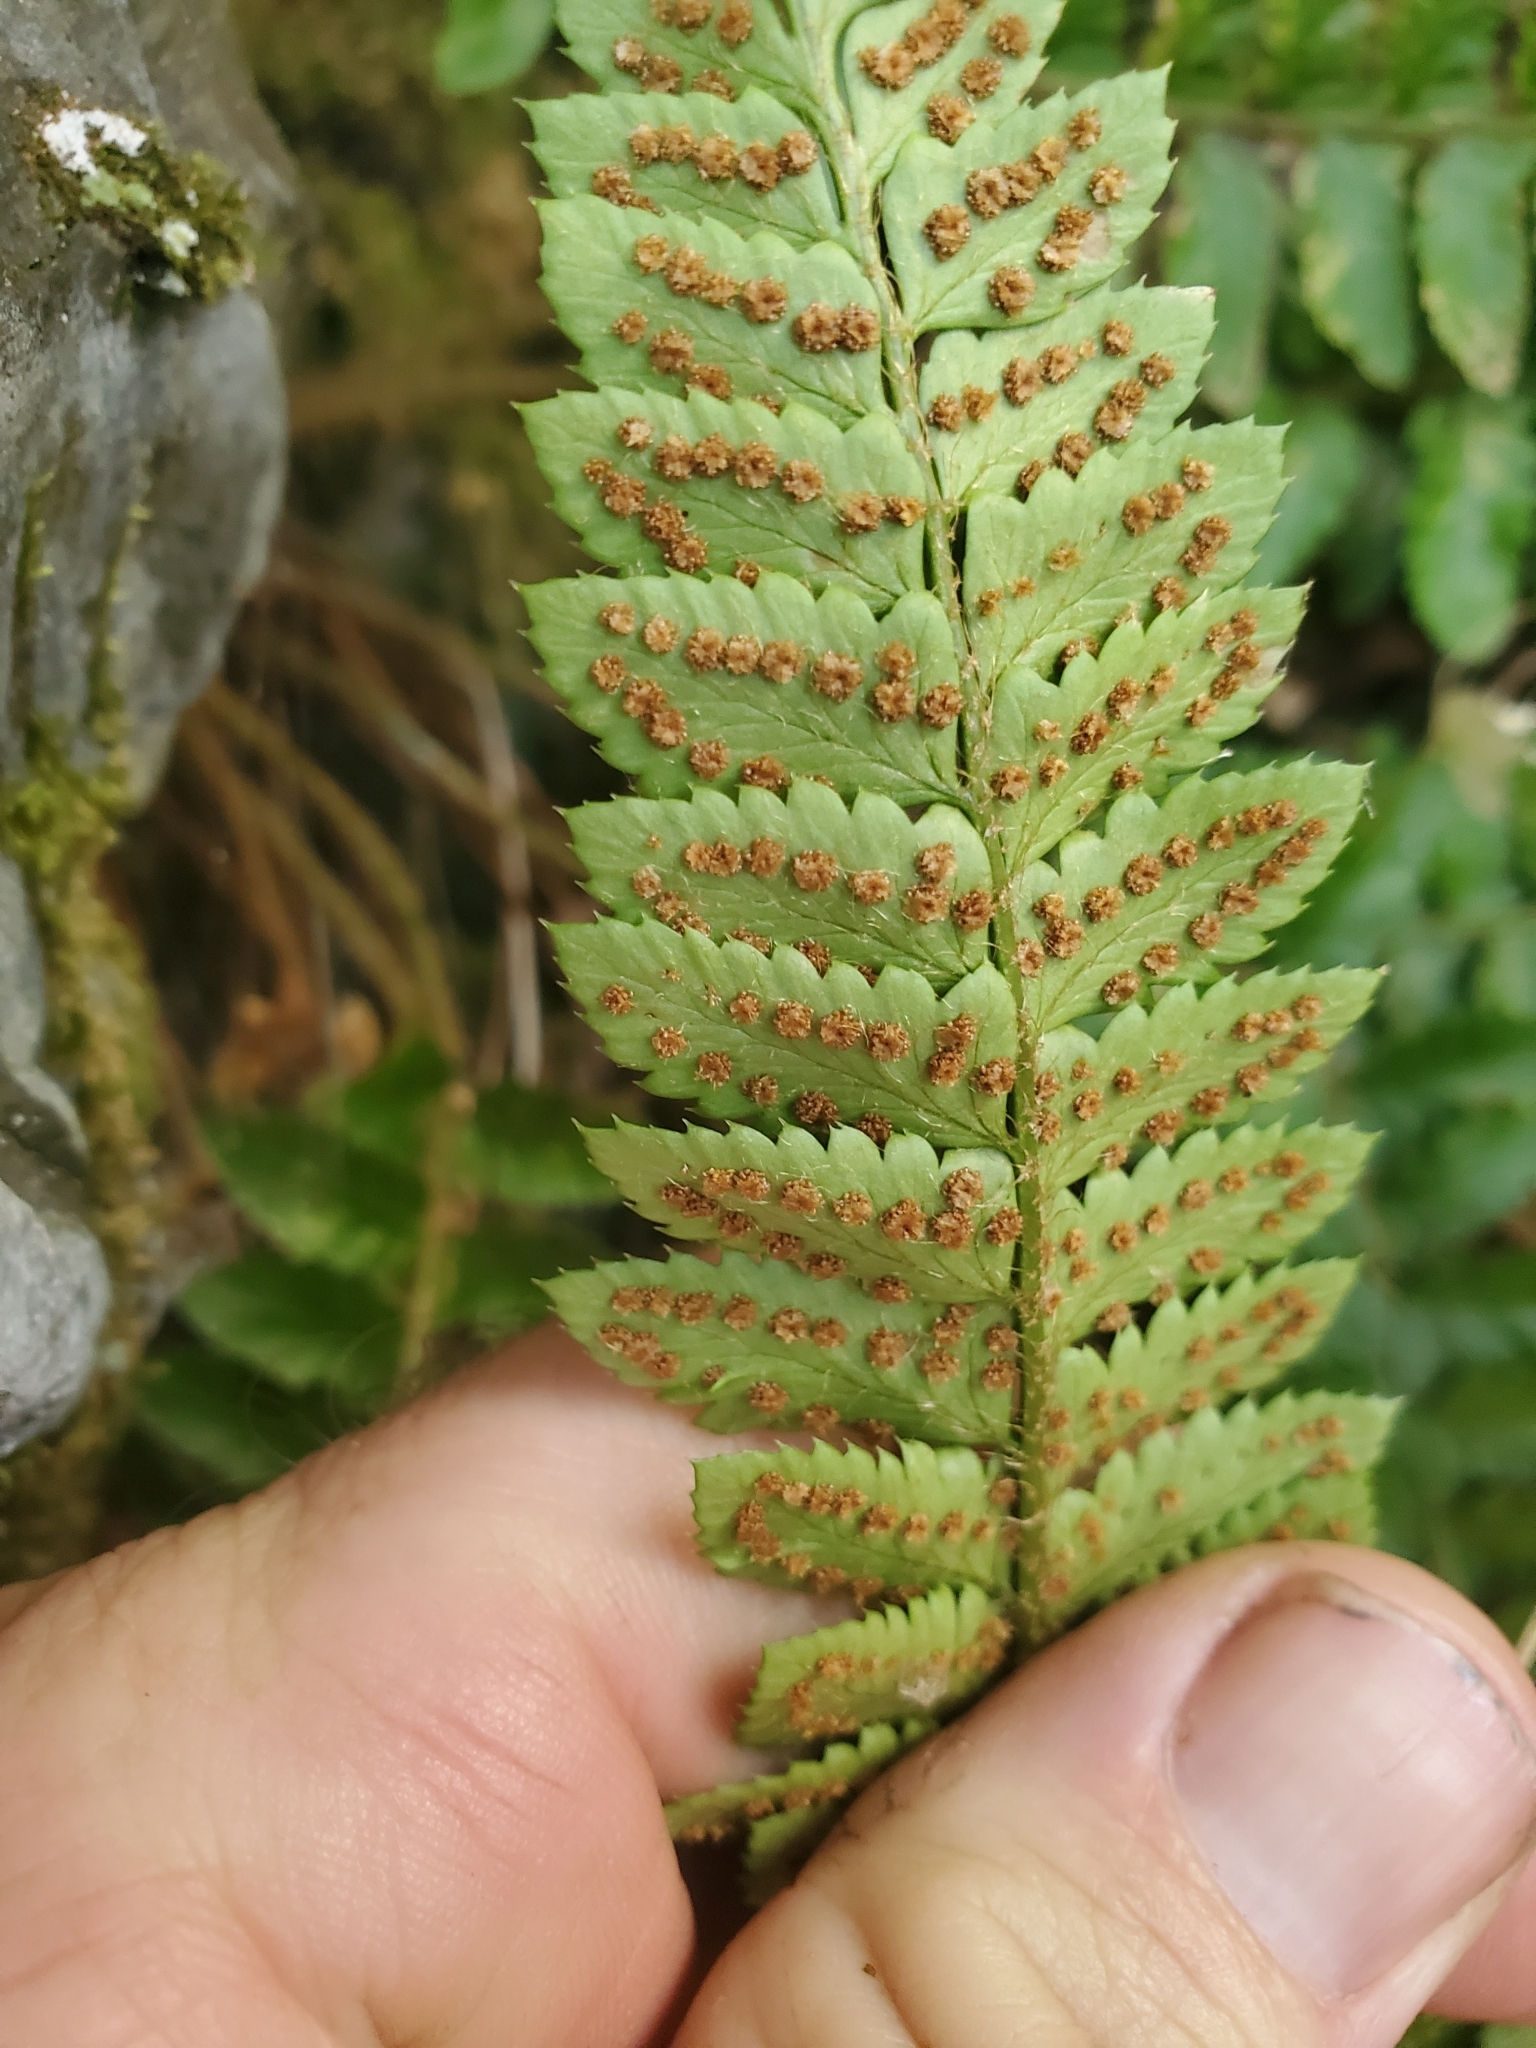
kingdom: Plantae
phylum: Tracheophyta
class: Polypodiopsida
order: Polypodiales
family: Dryopteridaceae
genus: Polystichum
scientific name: Polystichum californicum
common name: California sword fern
